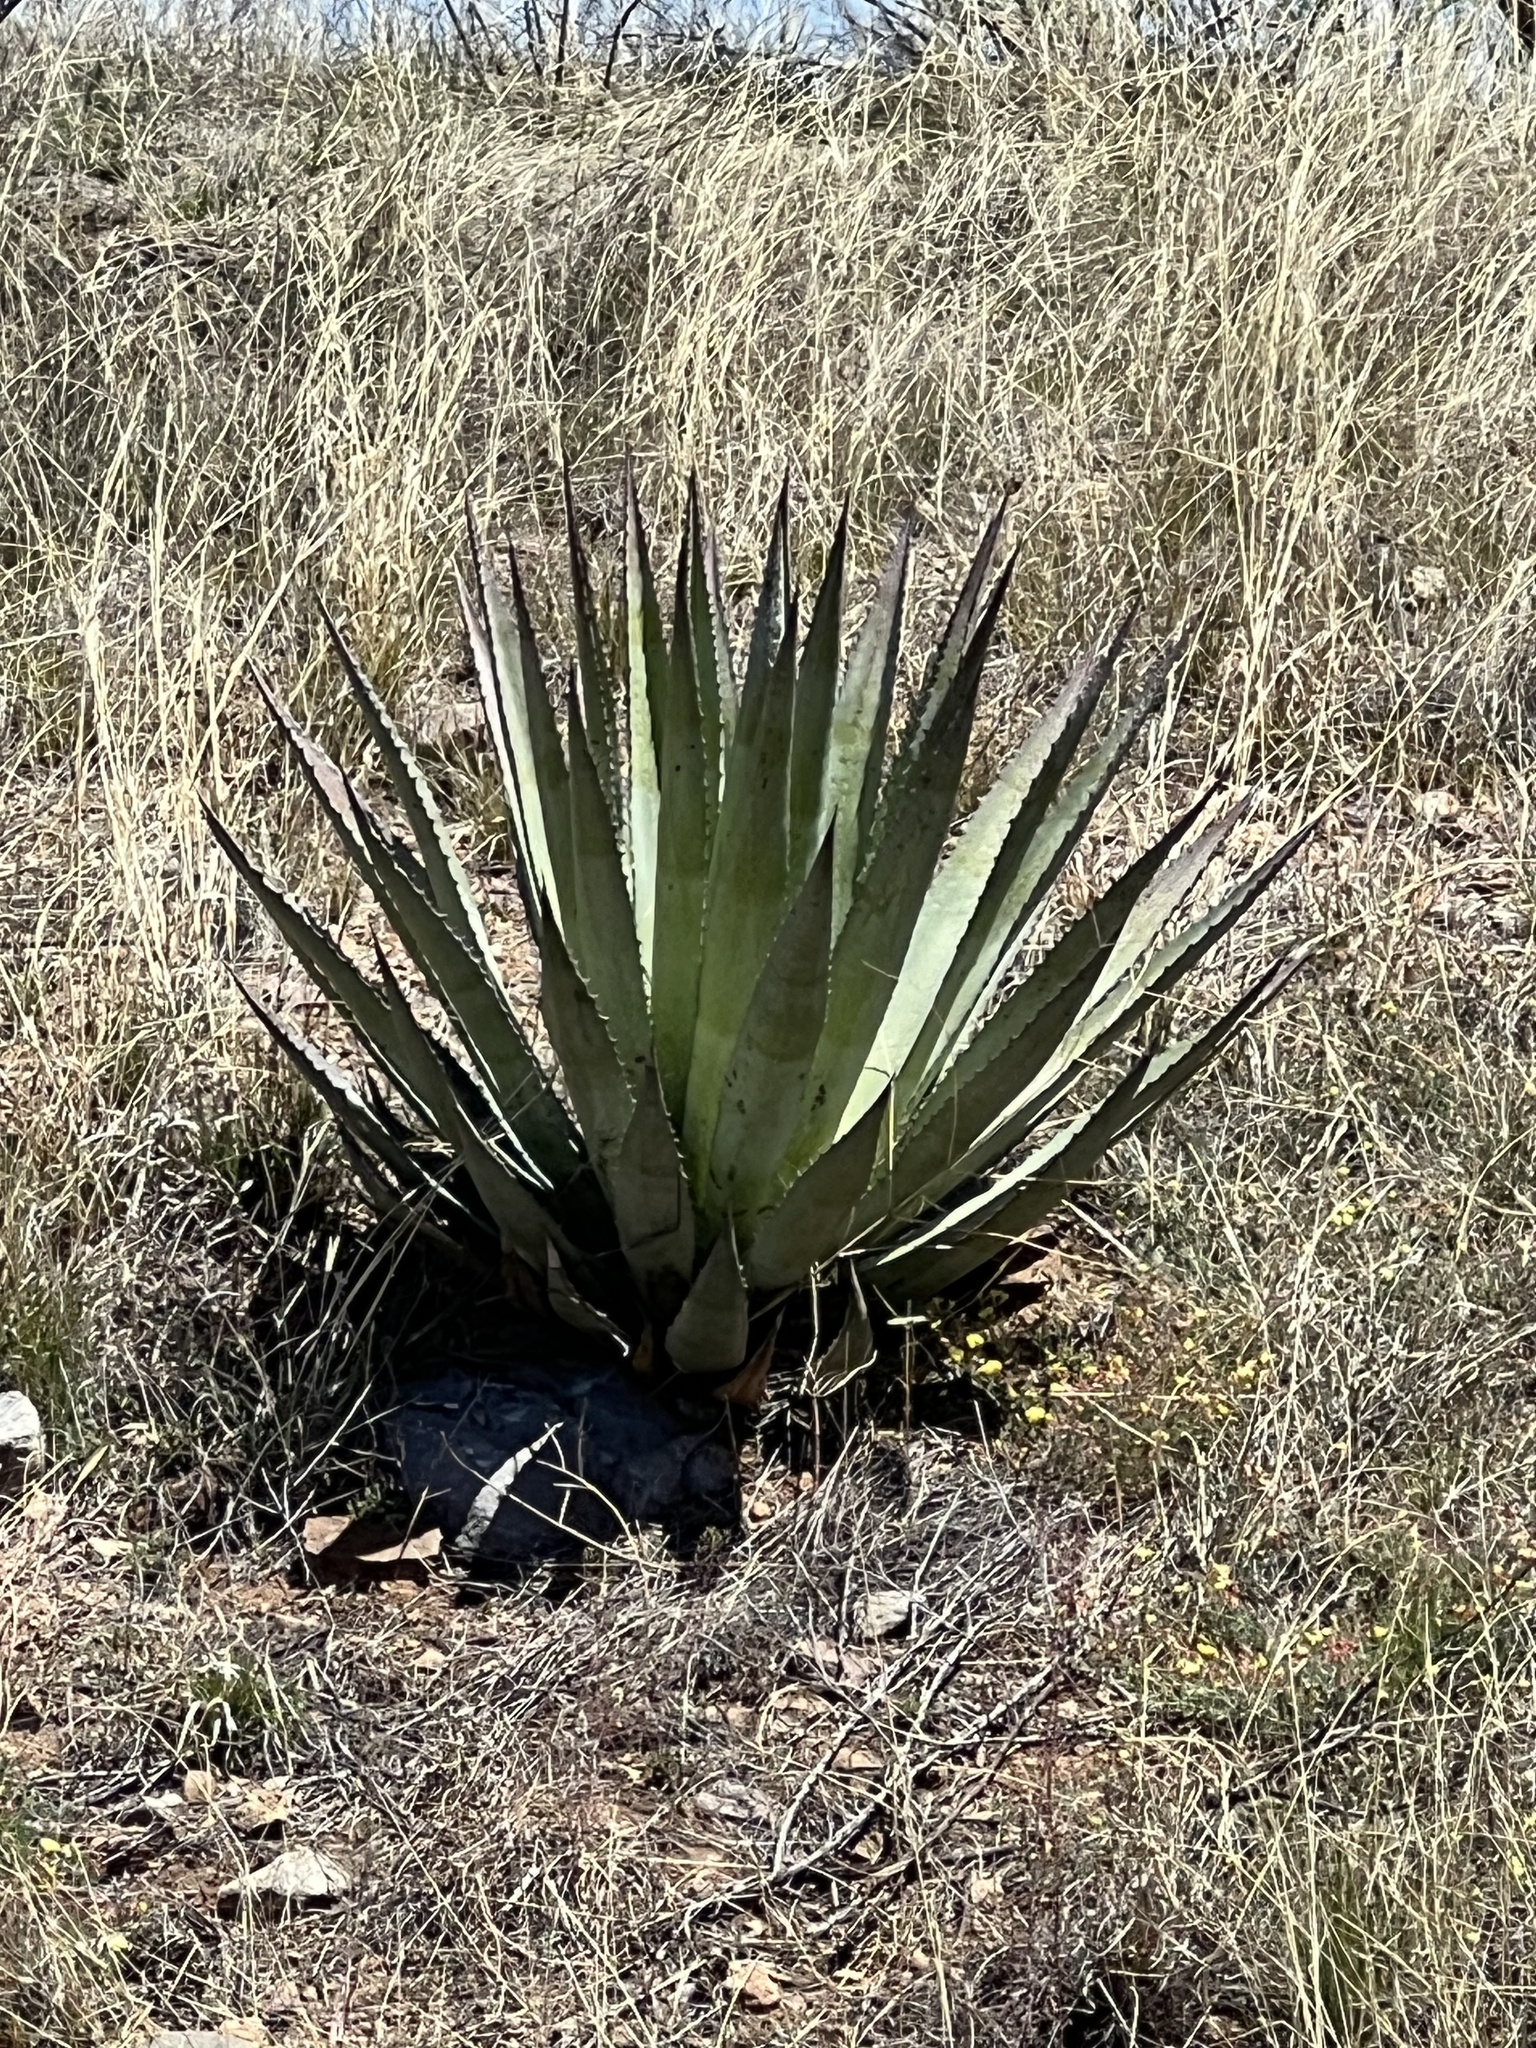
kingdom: Plantae
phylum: Tracheophyta
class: Liliopsida
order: Asparagales
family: Asparagaceae
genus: Agave
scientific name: Agave palmeri
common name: Palmer agave
